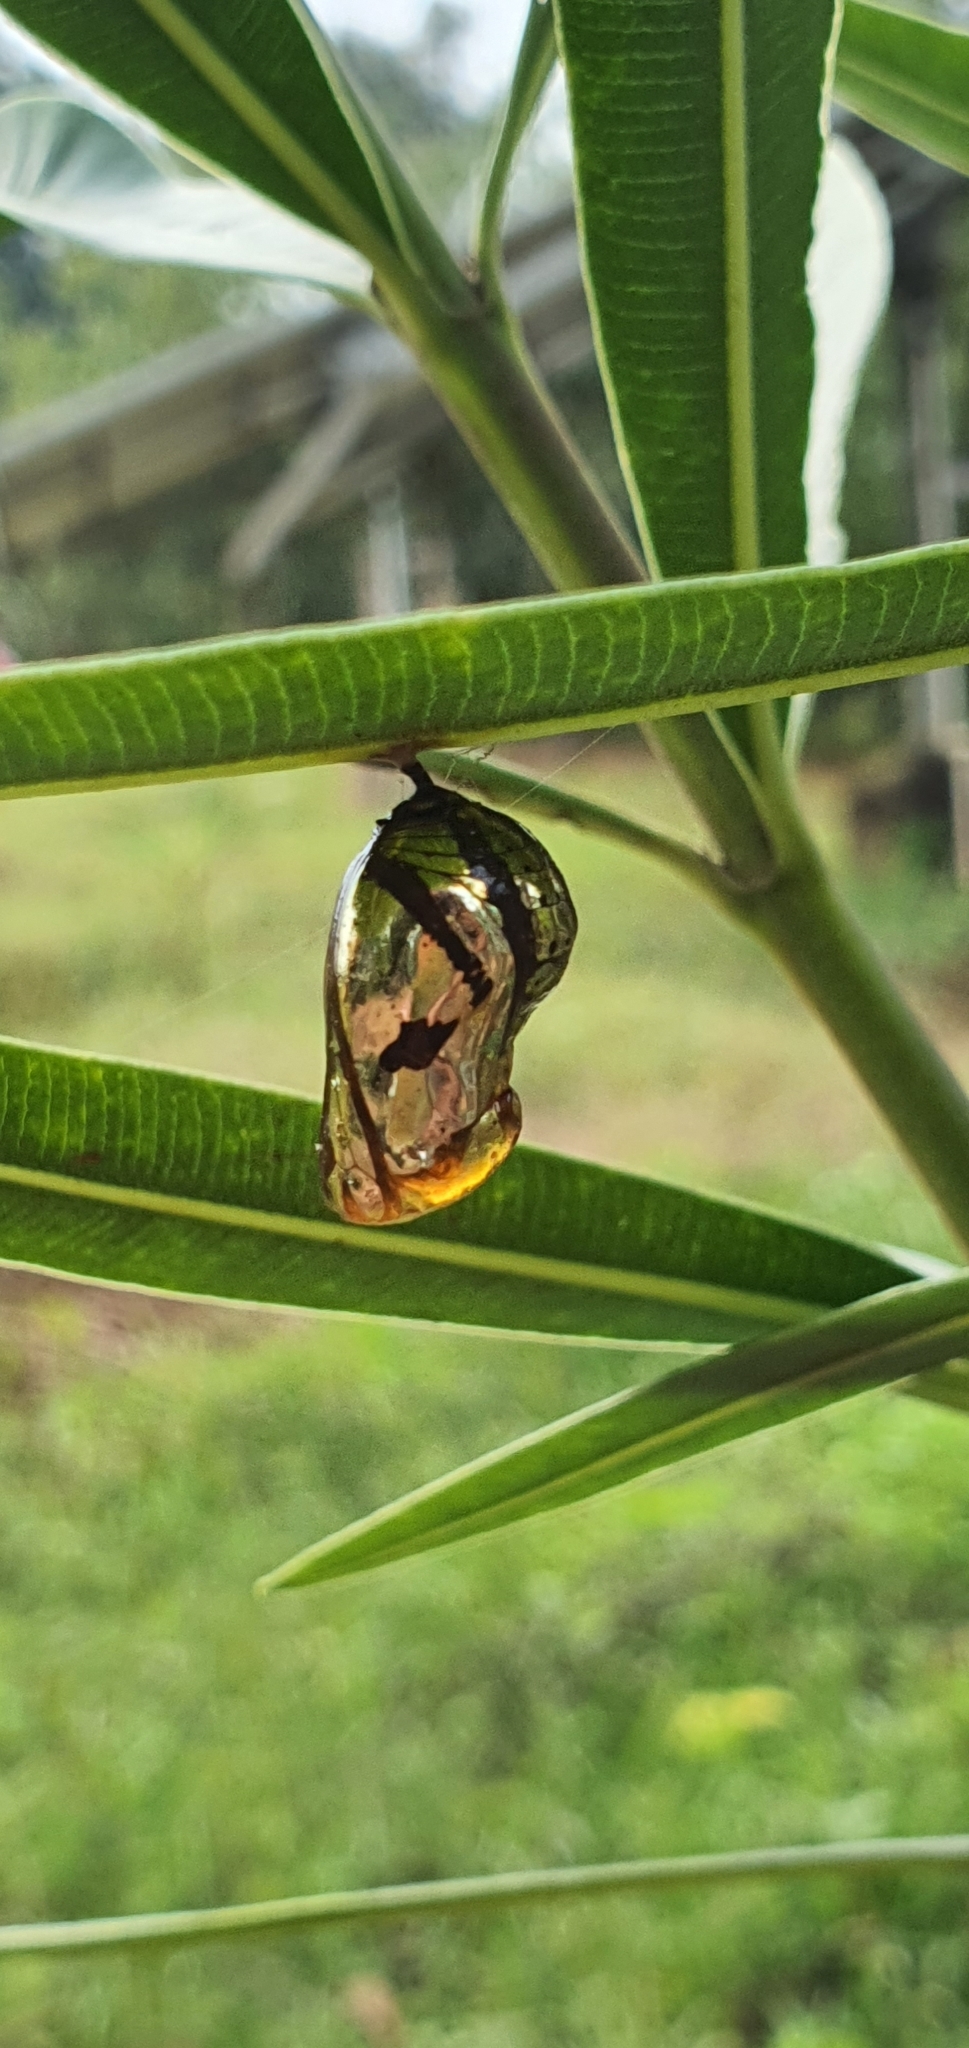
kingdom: Animalia
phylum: Arthropoda
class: Insecta
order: Lepidoptera
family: Nymphalidae
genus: Euploea
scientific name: Euploea core
